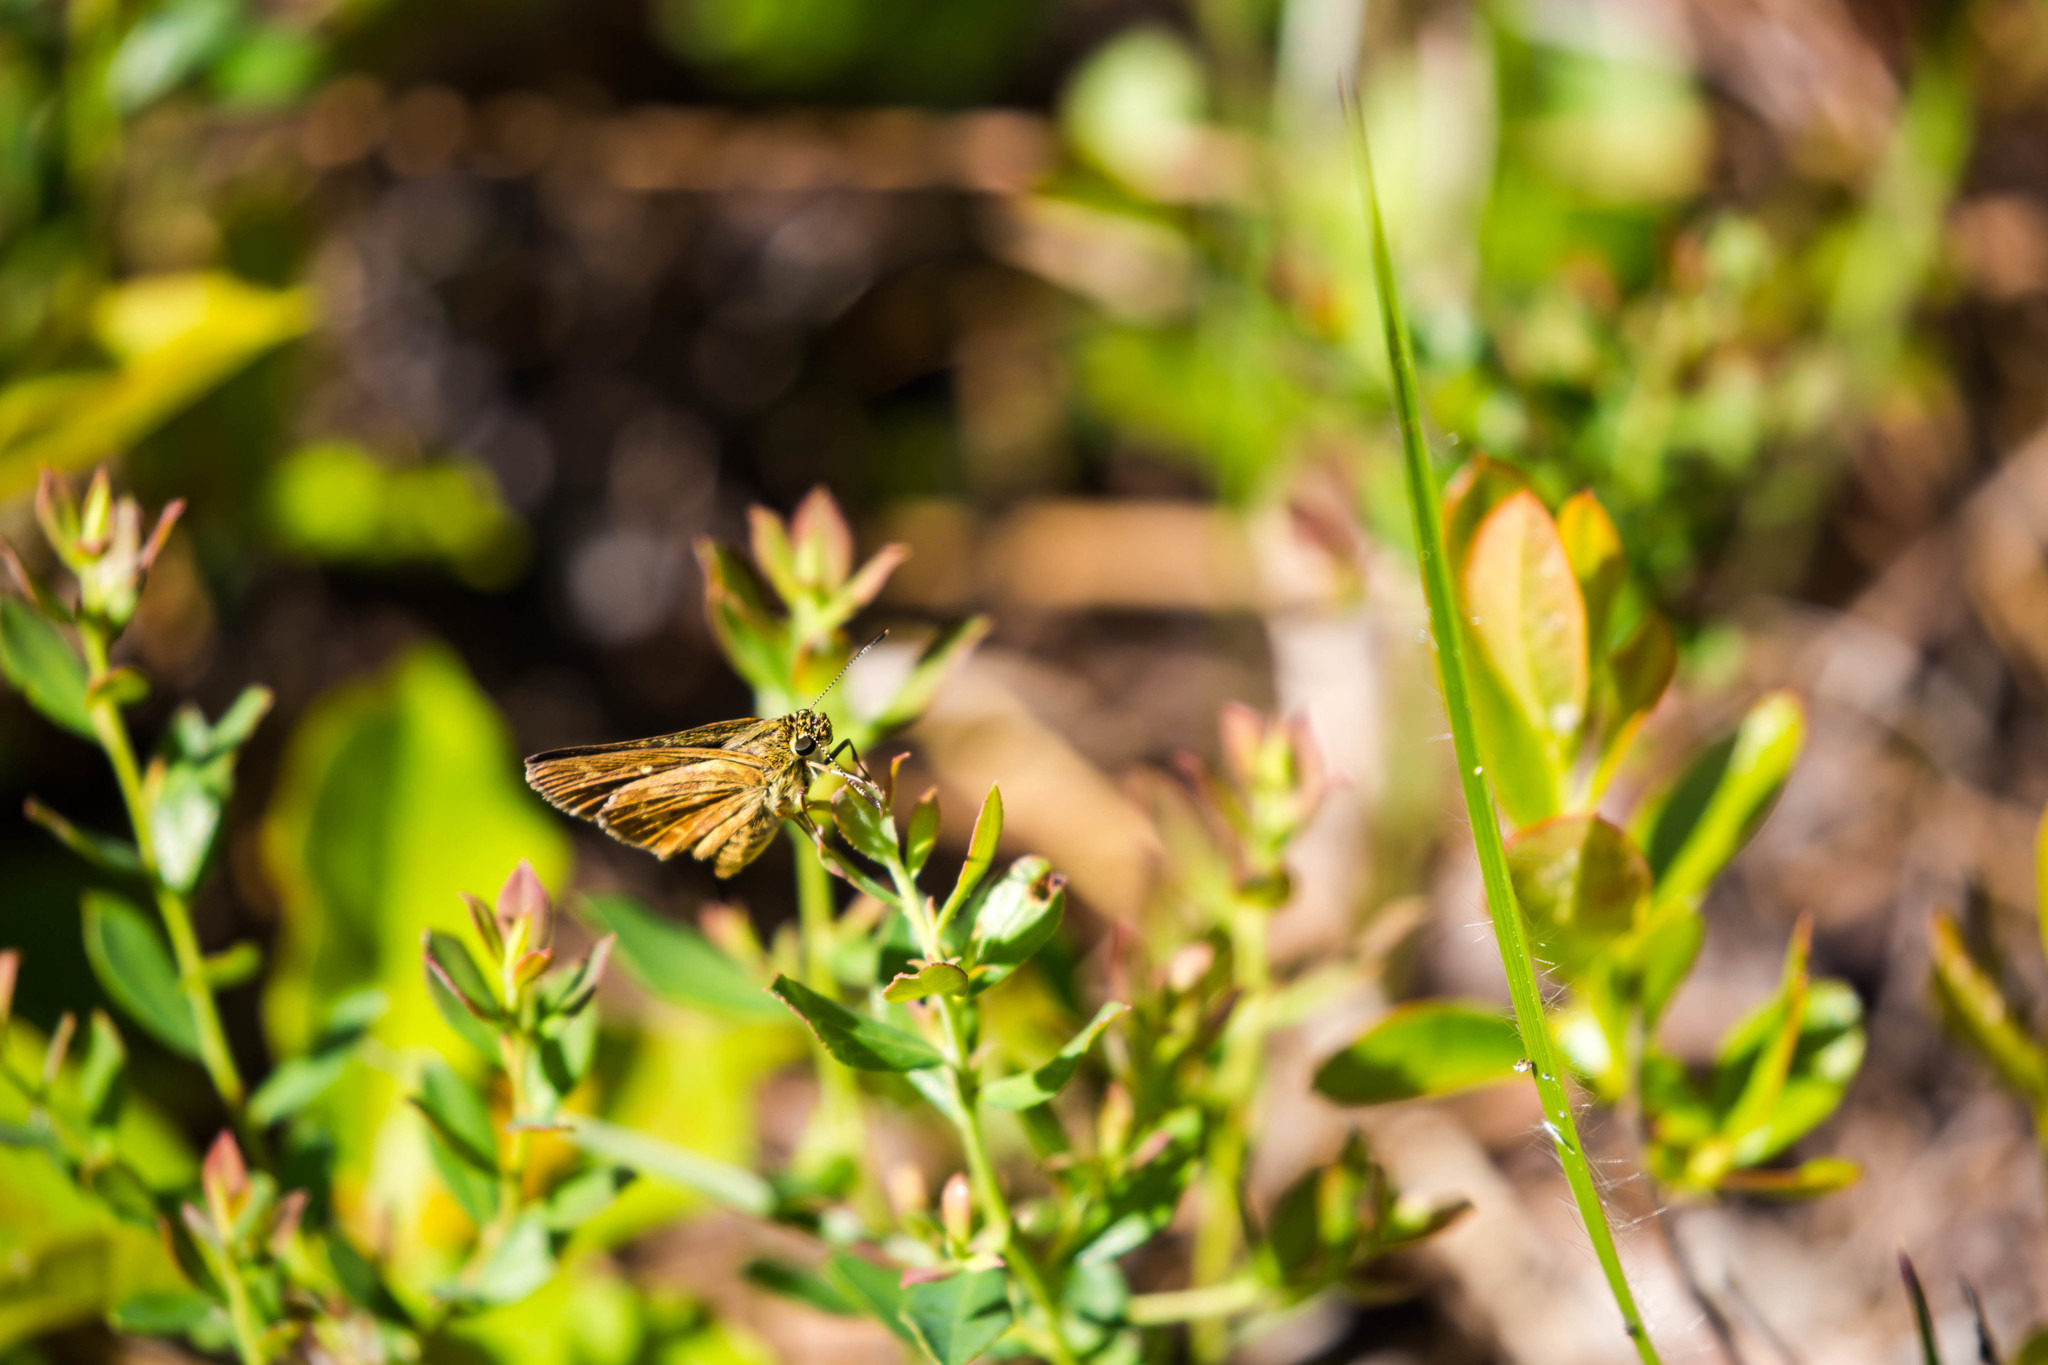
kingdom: Animalia
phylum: Arthropoda
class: Insecta
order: Lepidoptera
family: Hesperiidae
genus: Mastor
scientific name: Mastor carolina
